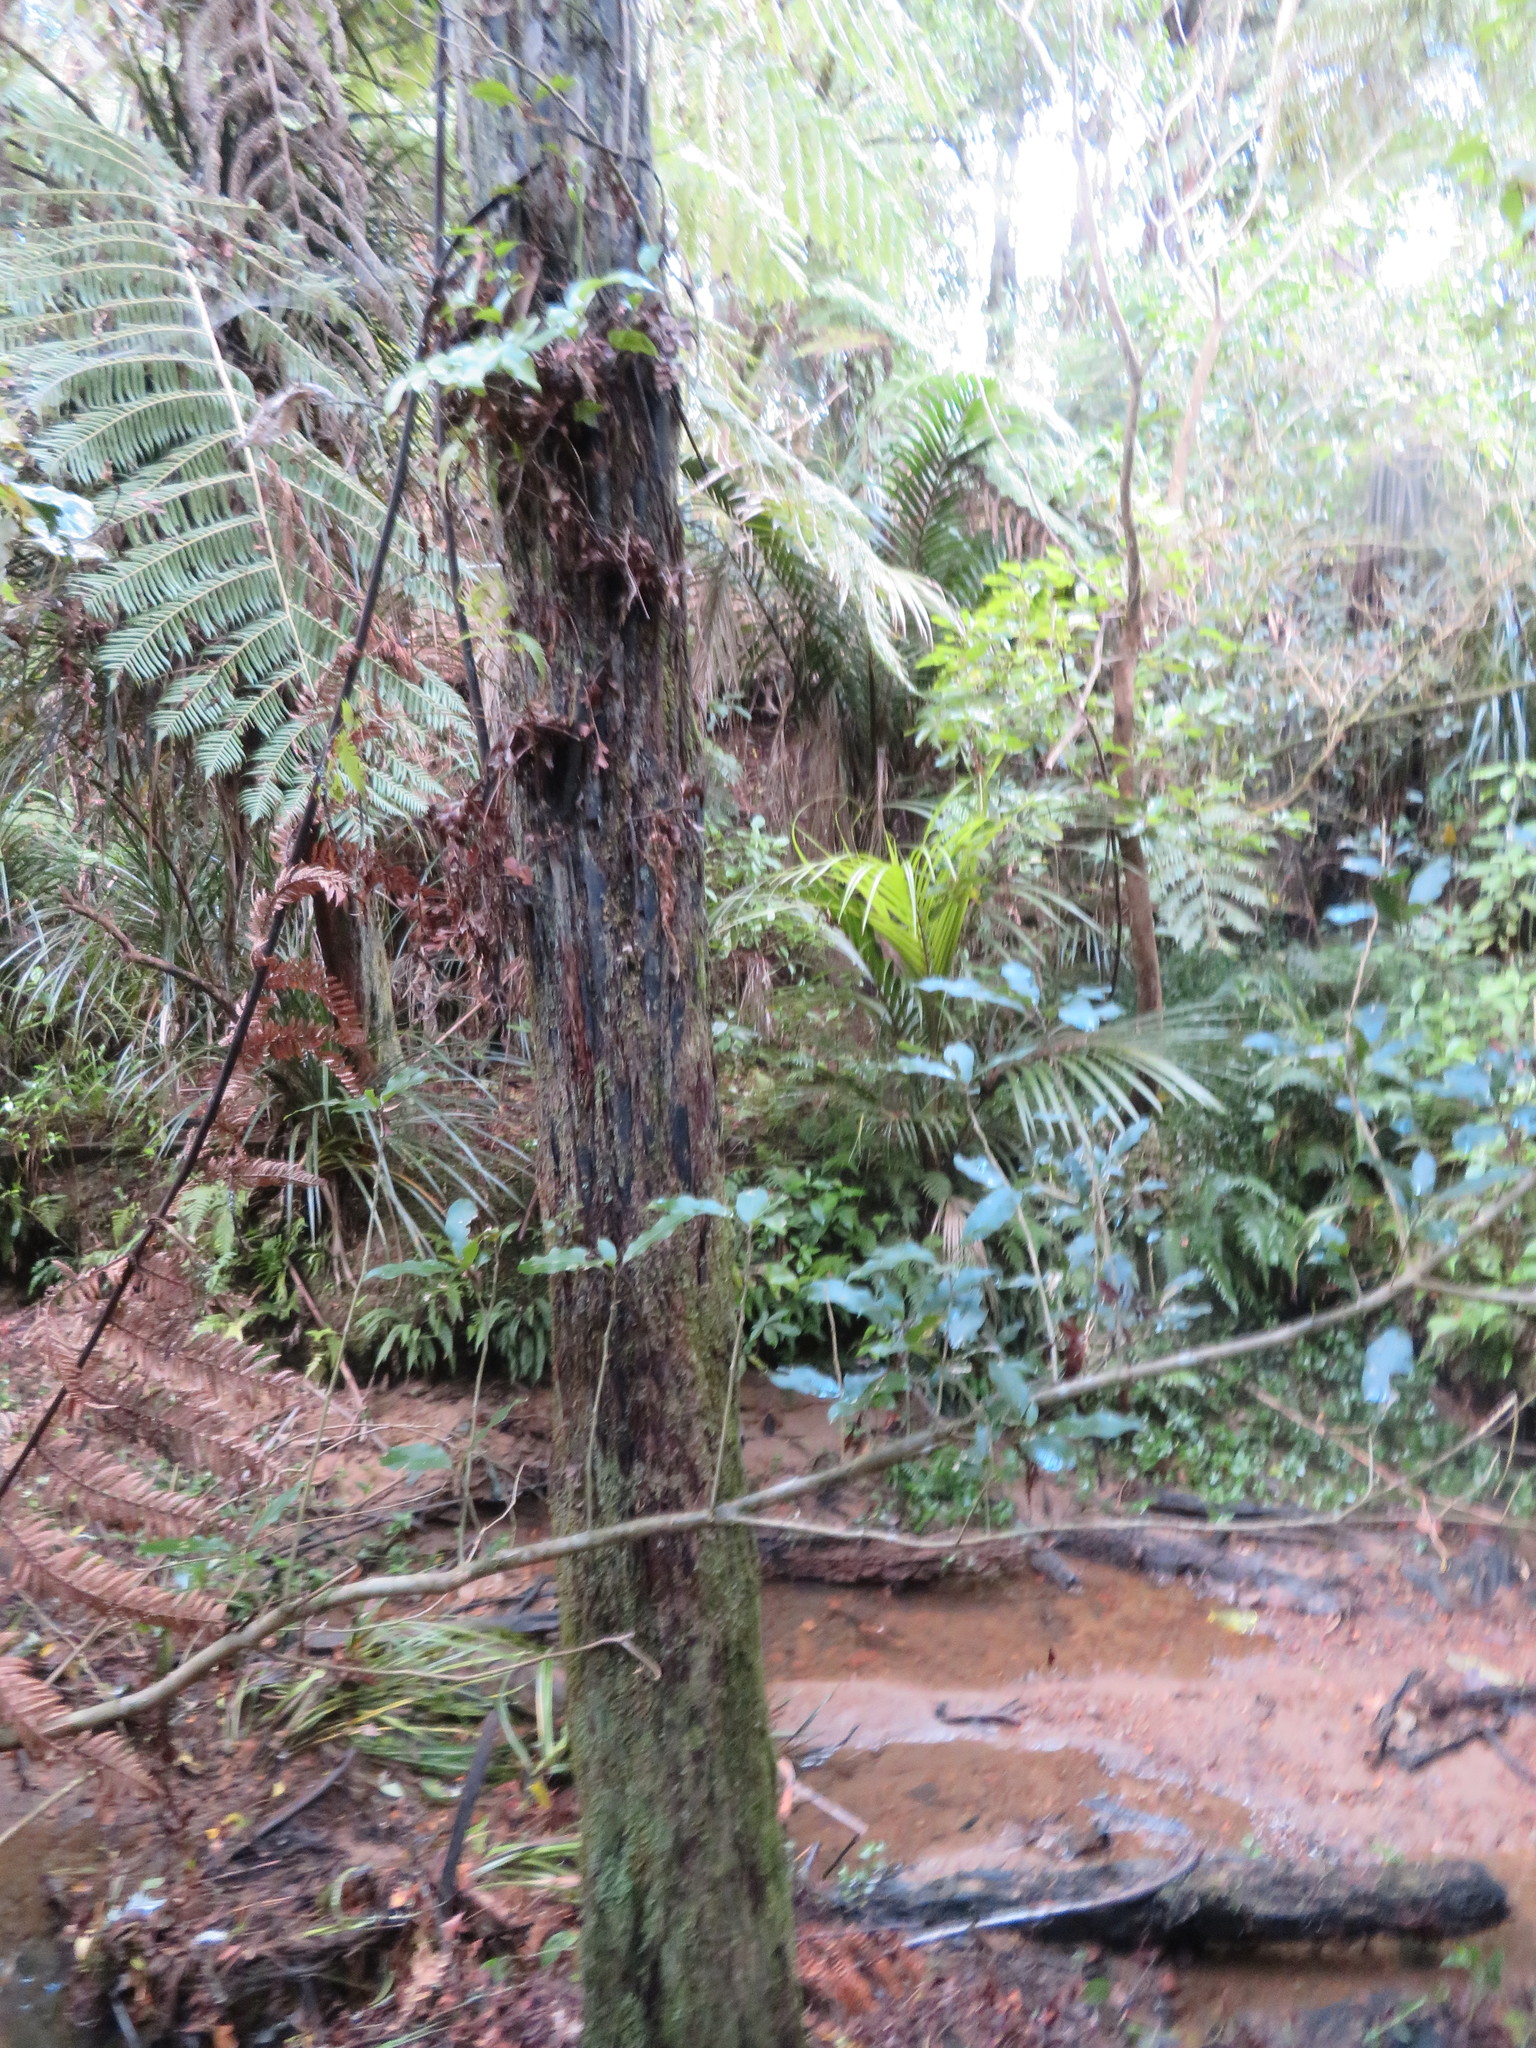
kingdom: Plantae
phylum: Tracheophyta
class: Liliopsida
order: Arecales
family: Arecaceae
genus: Rhopalostylis
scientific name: Rhopalostylis sapida
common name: Feather-duster palm
